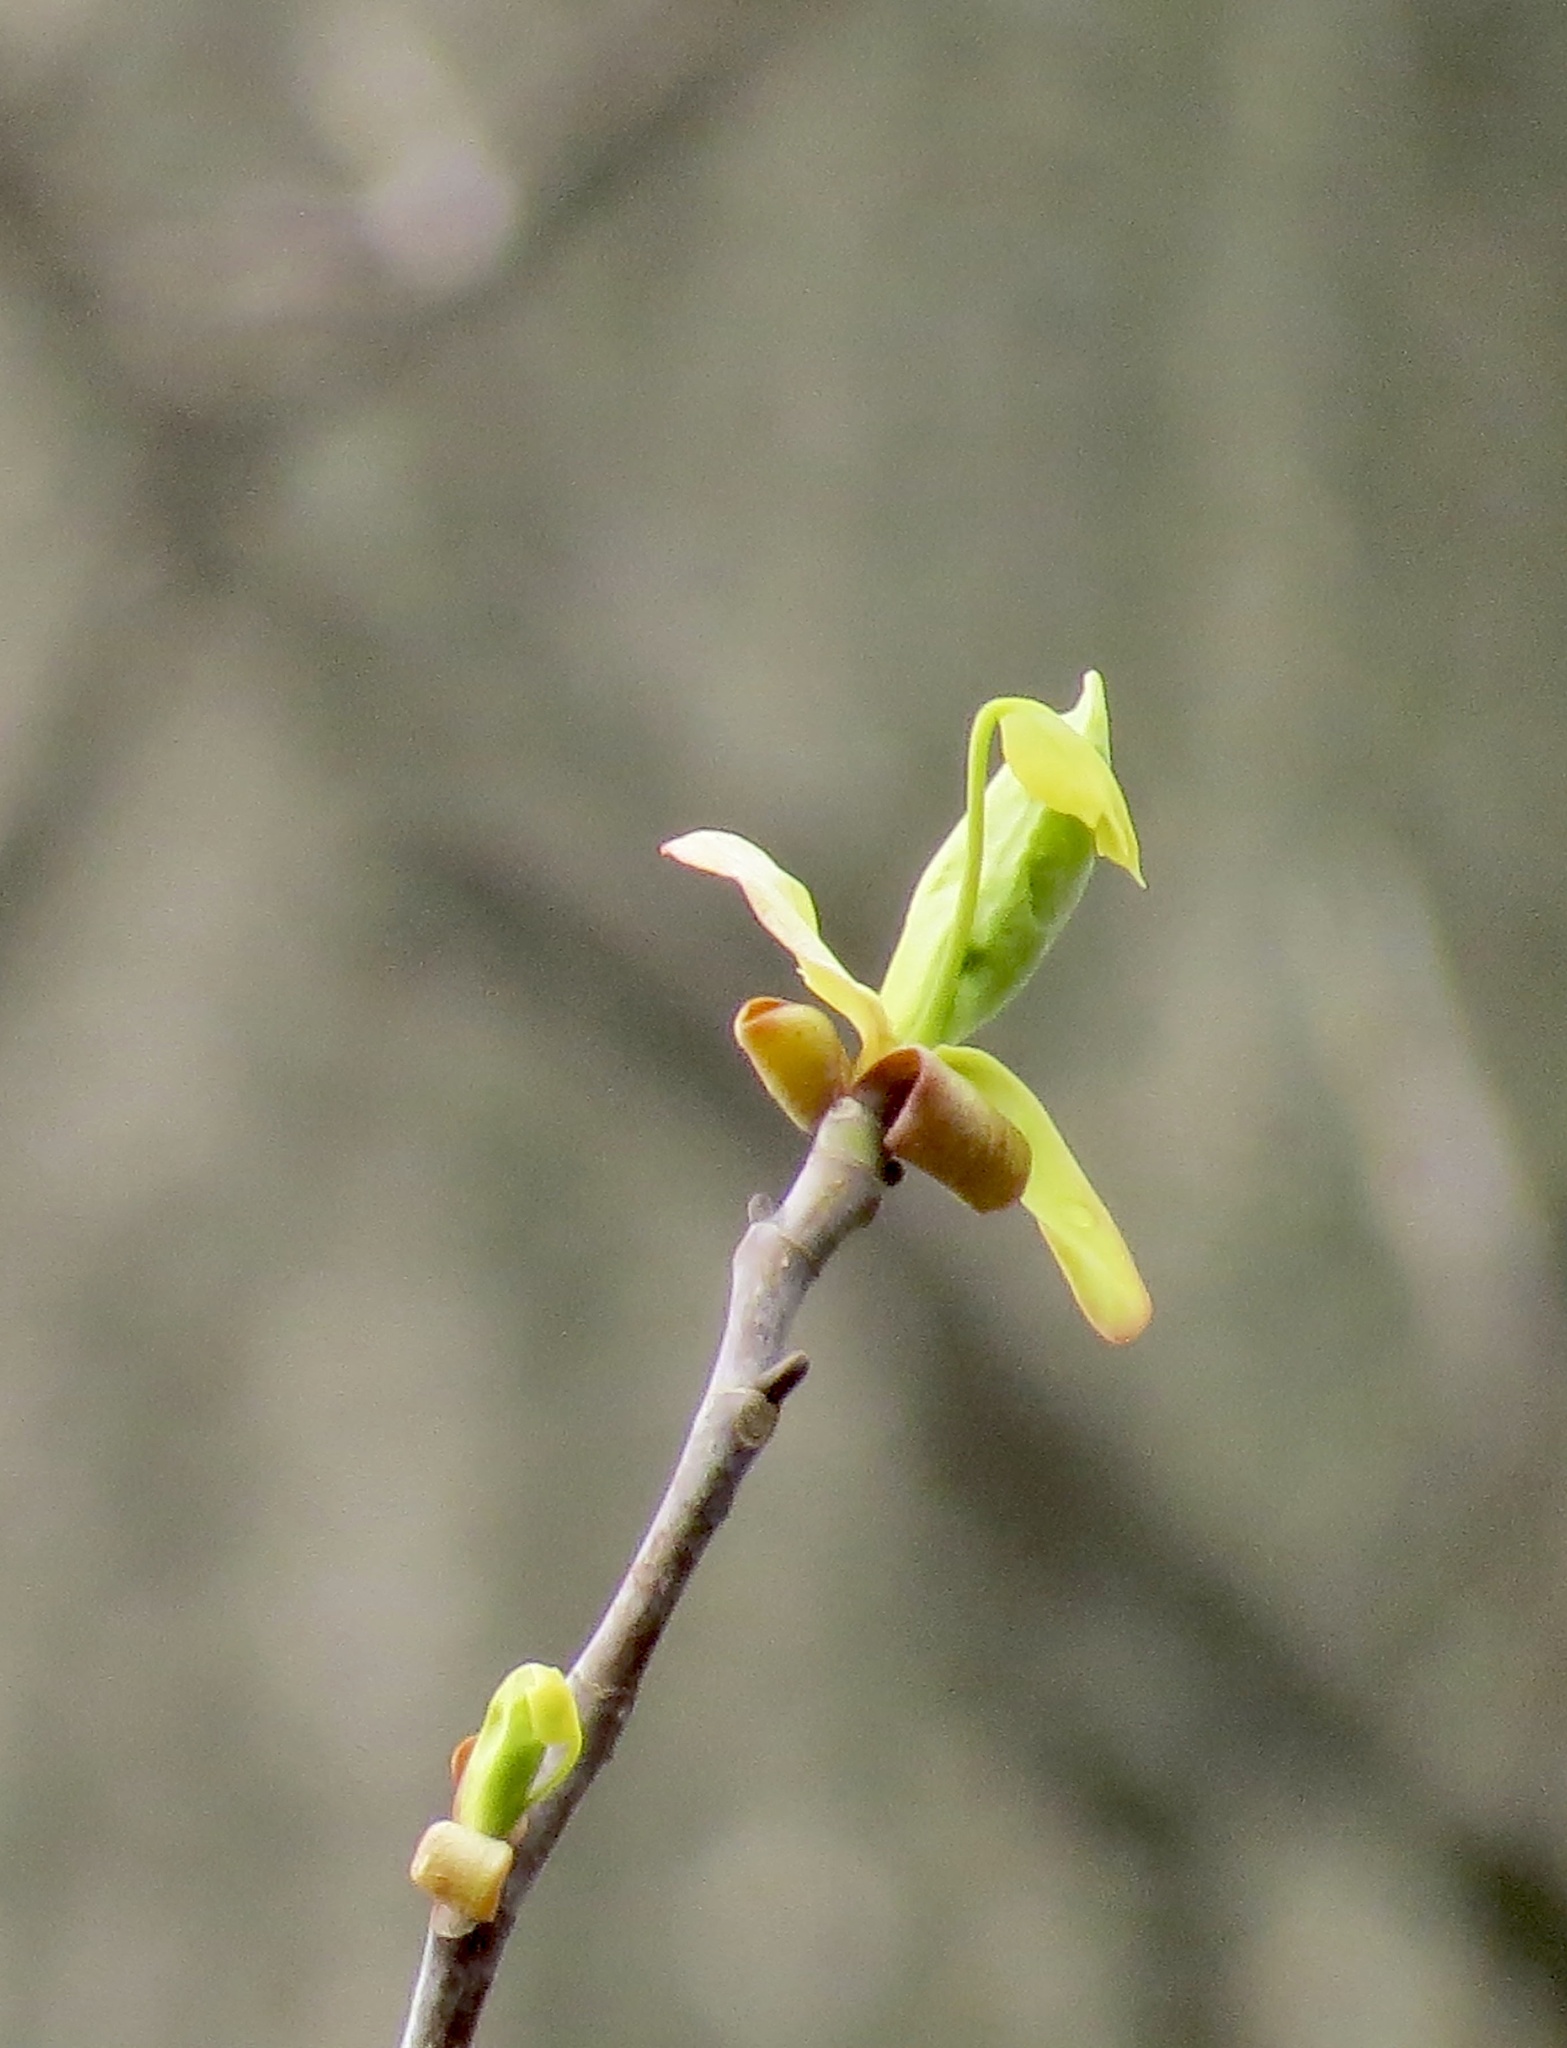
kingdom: Plantae
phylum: Tracheophyta
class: Magnoliopsida
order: Magnoliales
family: Magnoliaceae
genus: Liriodendron
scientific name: Liriodendron tulipifera
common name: Tulip tree
